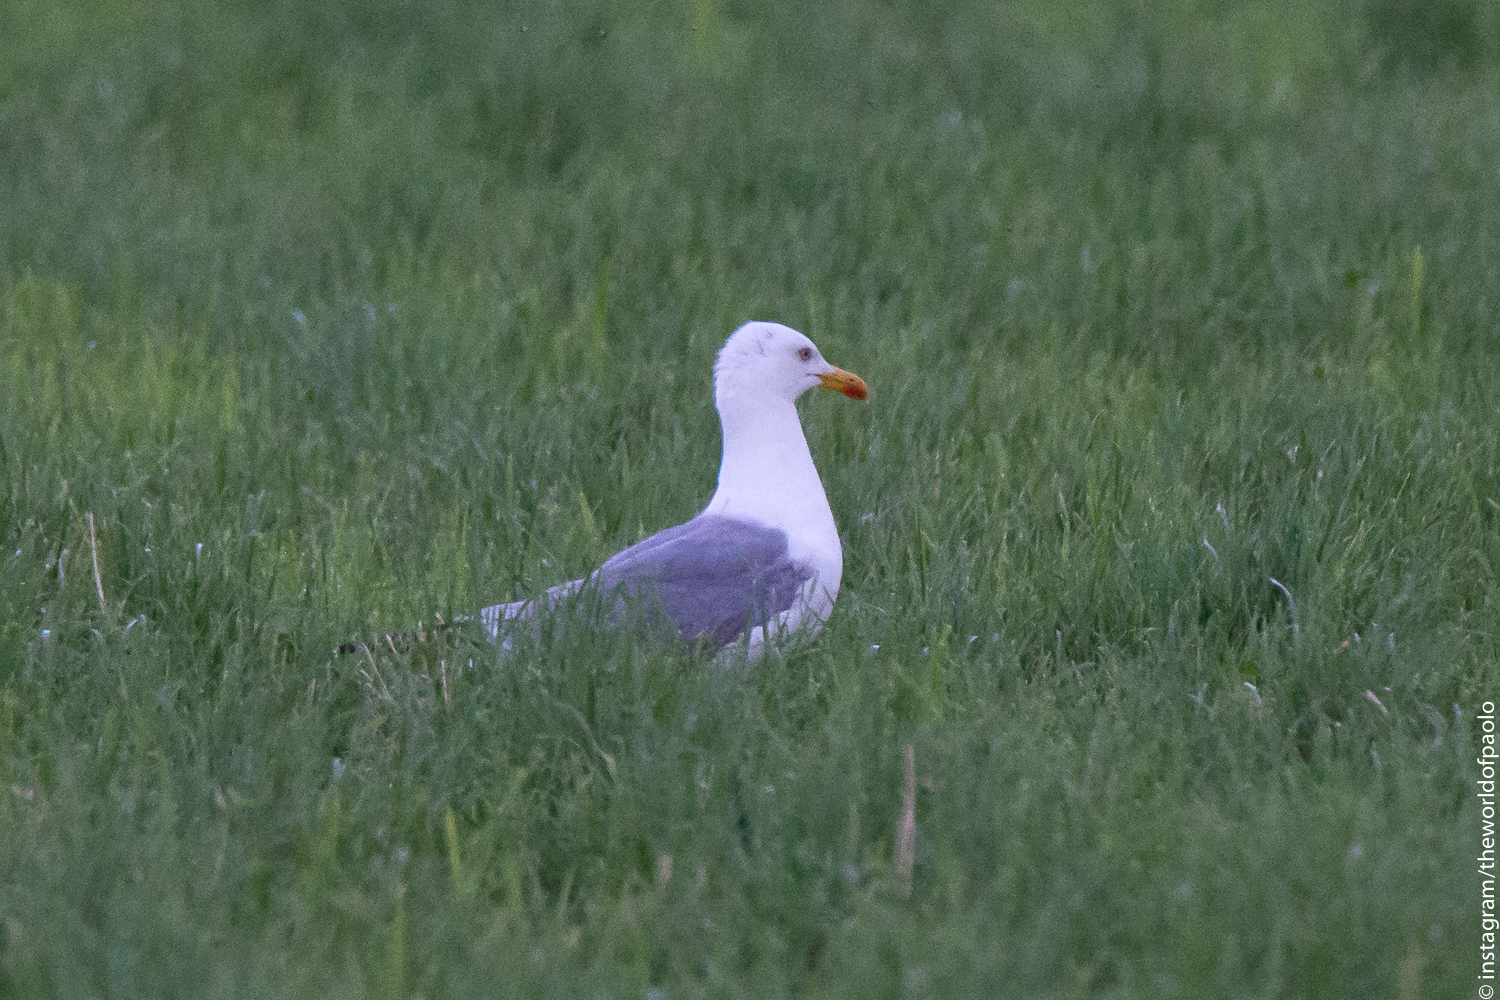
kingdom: Animalia
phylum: Chordata
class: Aves
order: Charadriiformes
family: Laridae
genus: Larus
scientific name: Larus michahellis
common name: Yellow-legged gull
